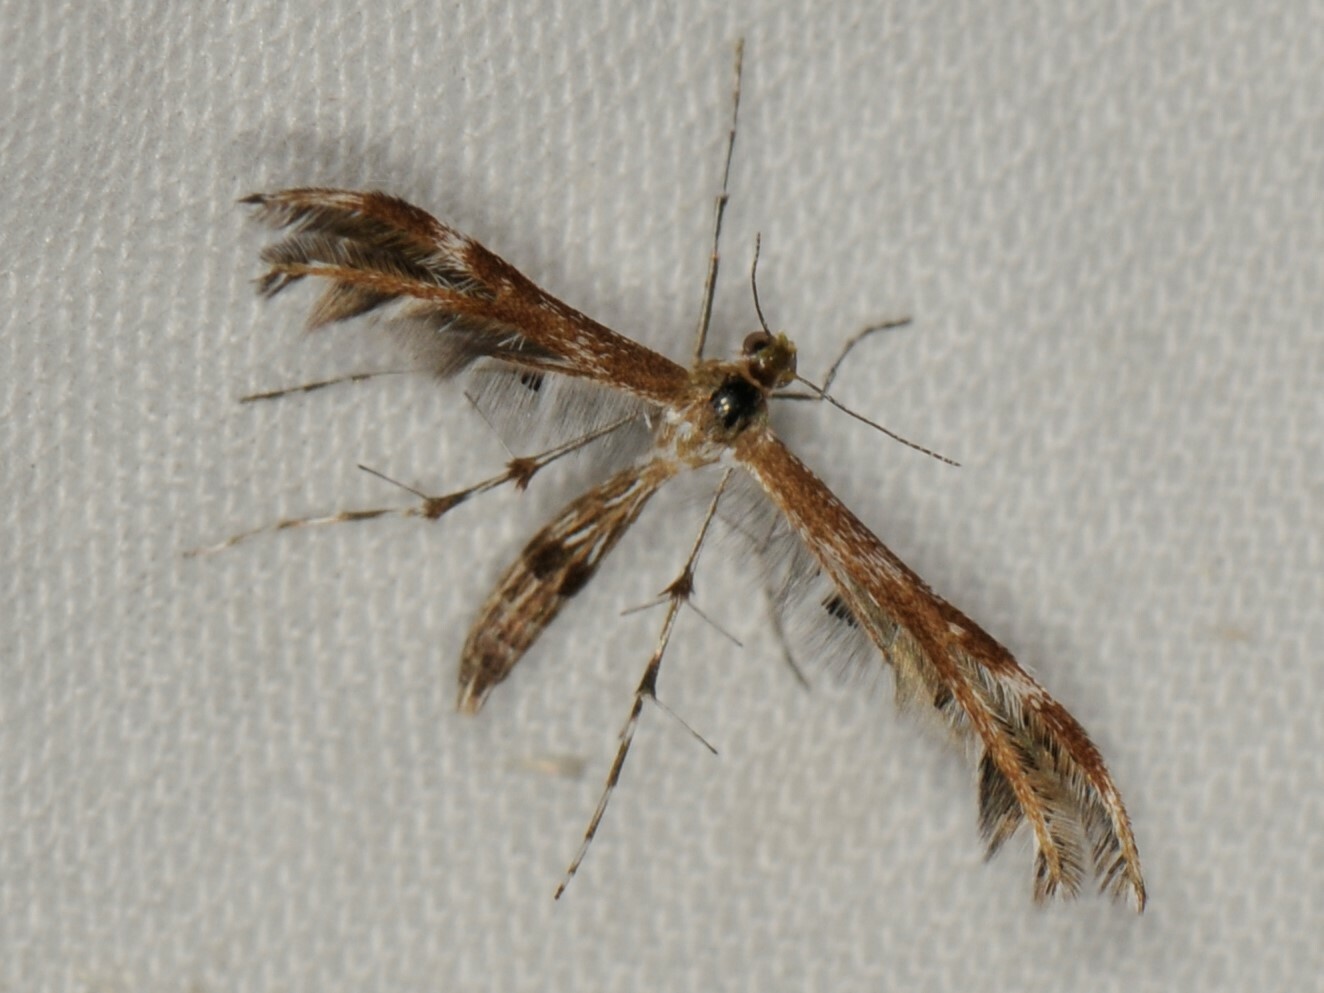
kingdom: Animalia
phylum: Arthropoda
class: Insecta
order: Lepidoptera
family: Pterophoridae
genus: Dejongia
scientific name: Dejongia californicus
